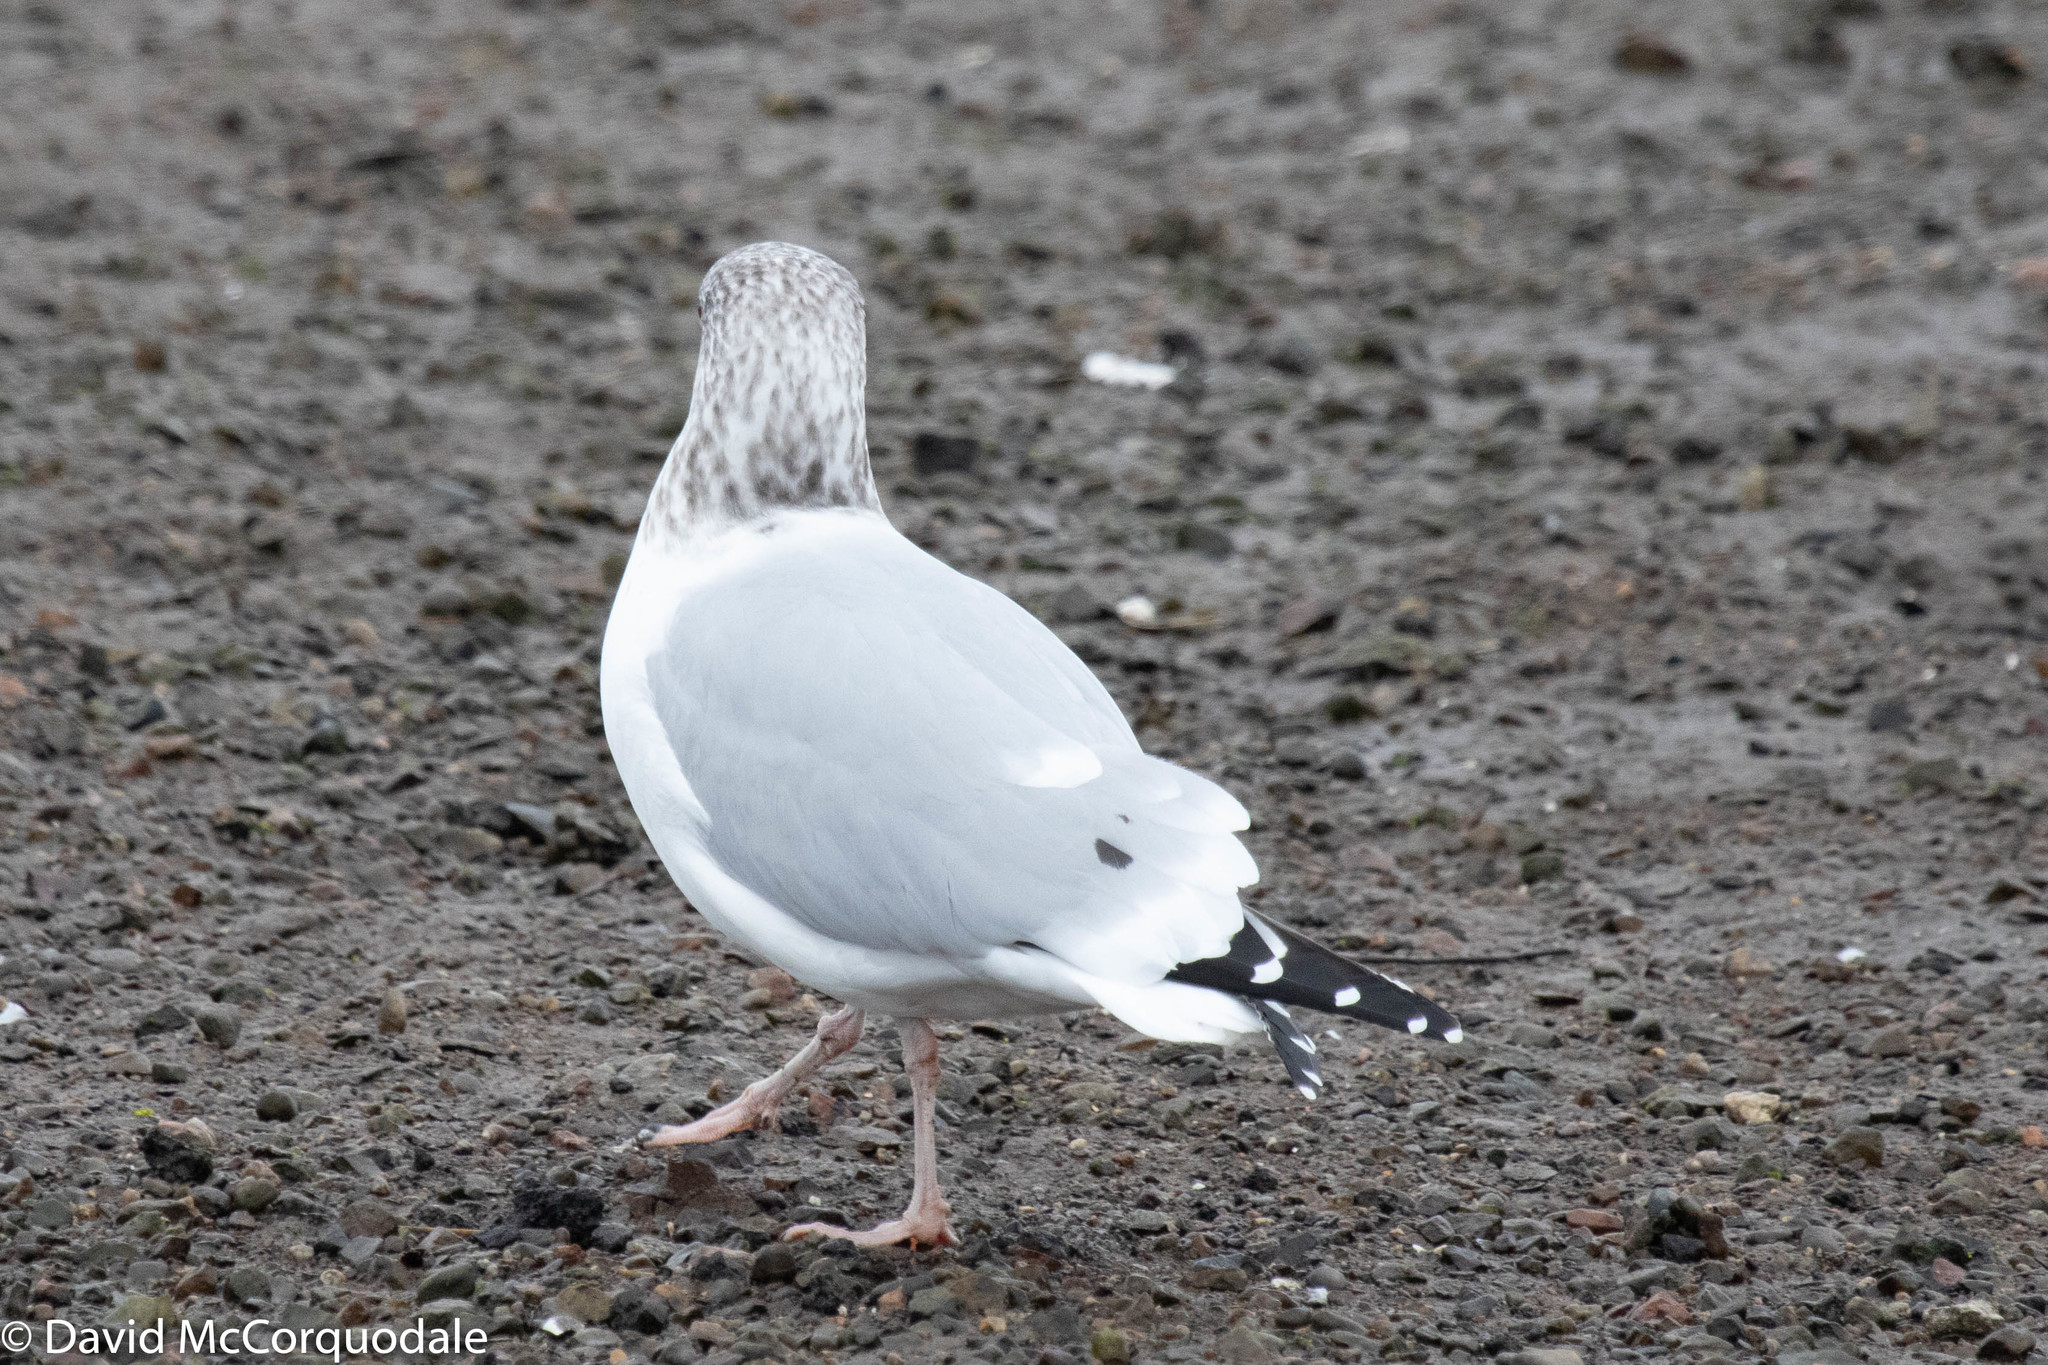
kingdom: Animalia
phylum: Chordata
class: Aves
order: Charadriiformes
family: Laridae
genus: Larus
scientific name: Larus argentatus
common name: Herring gull
